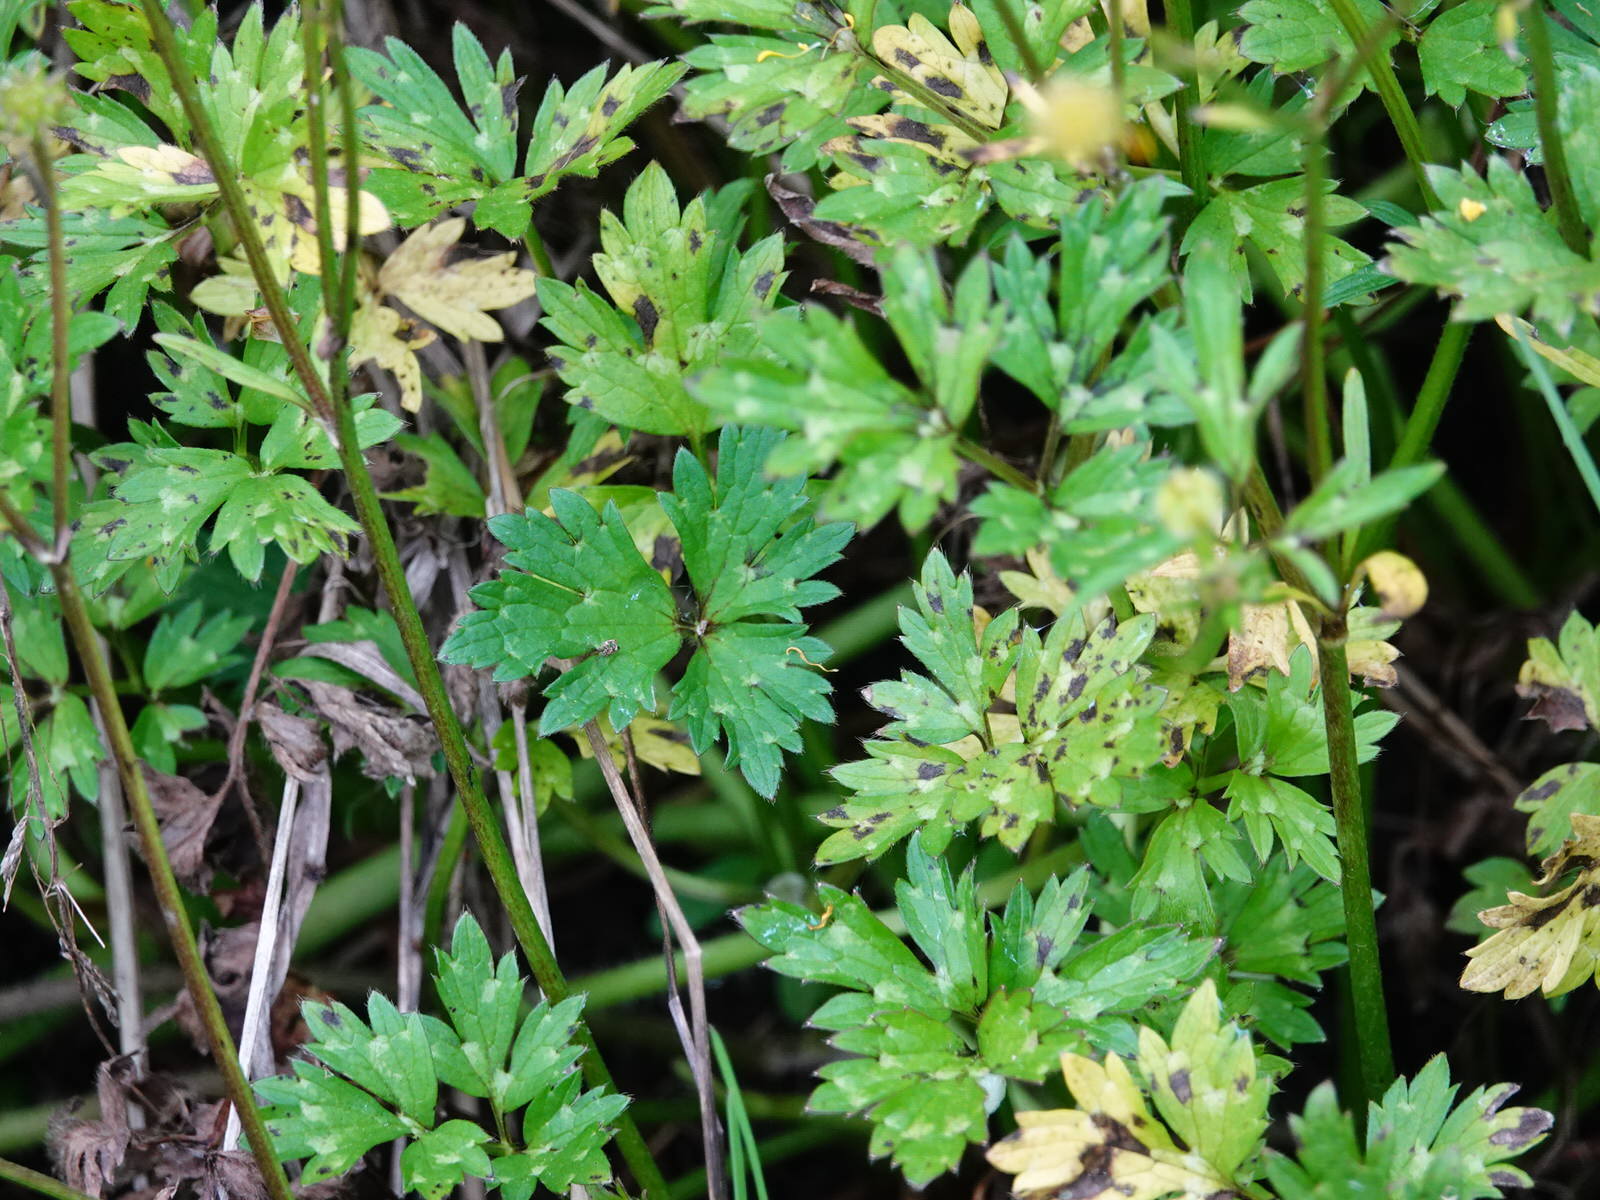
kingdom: Plantae
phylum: Tracheophyta
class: Magnoliopsida
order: Ranunculales
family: Ranunculaceae
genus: Ranunculus
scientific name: Ranunculus repens
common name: Creeping buttercup
